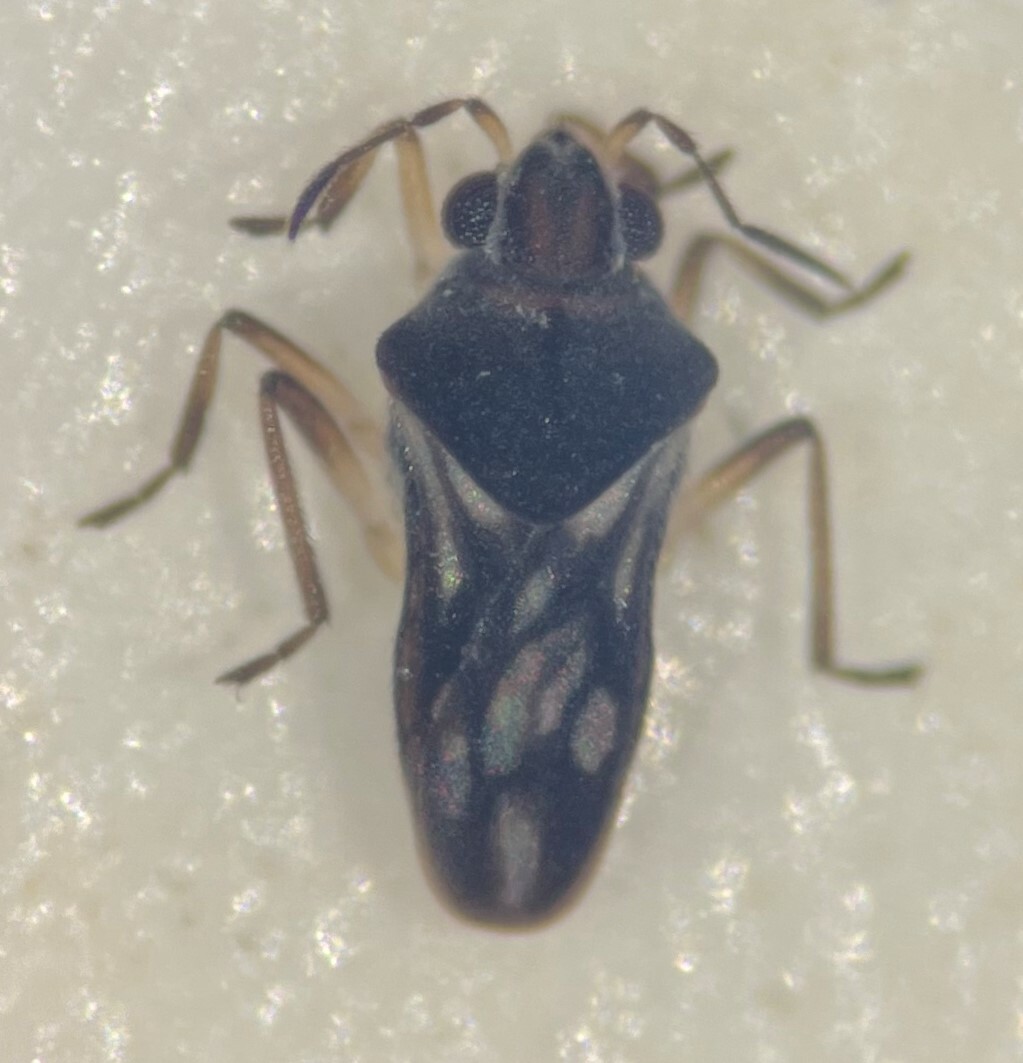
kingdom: Animalia
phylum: Arthropoda
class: Insecta
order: Hemiptera
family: Veliidae
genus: Microvelia
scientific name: Microvelia hinei
